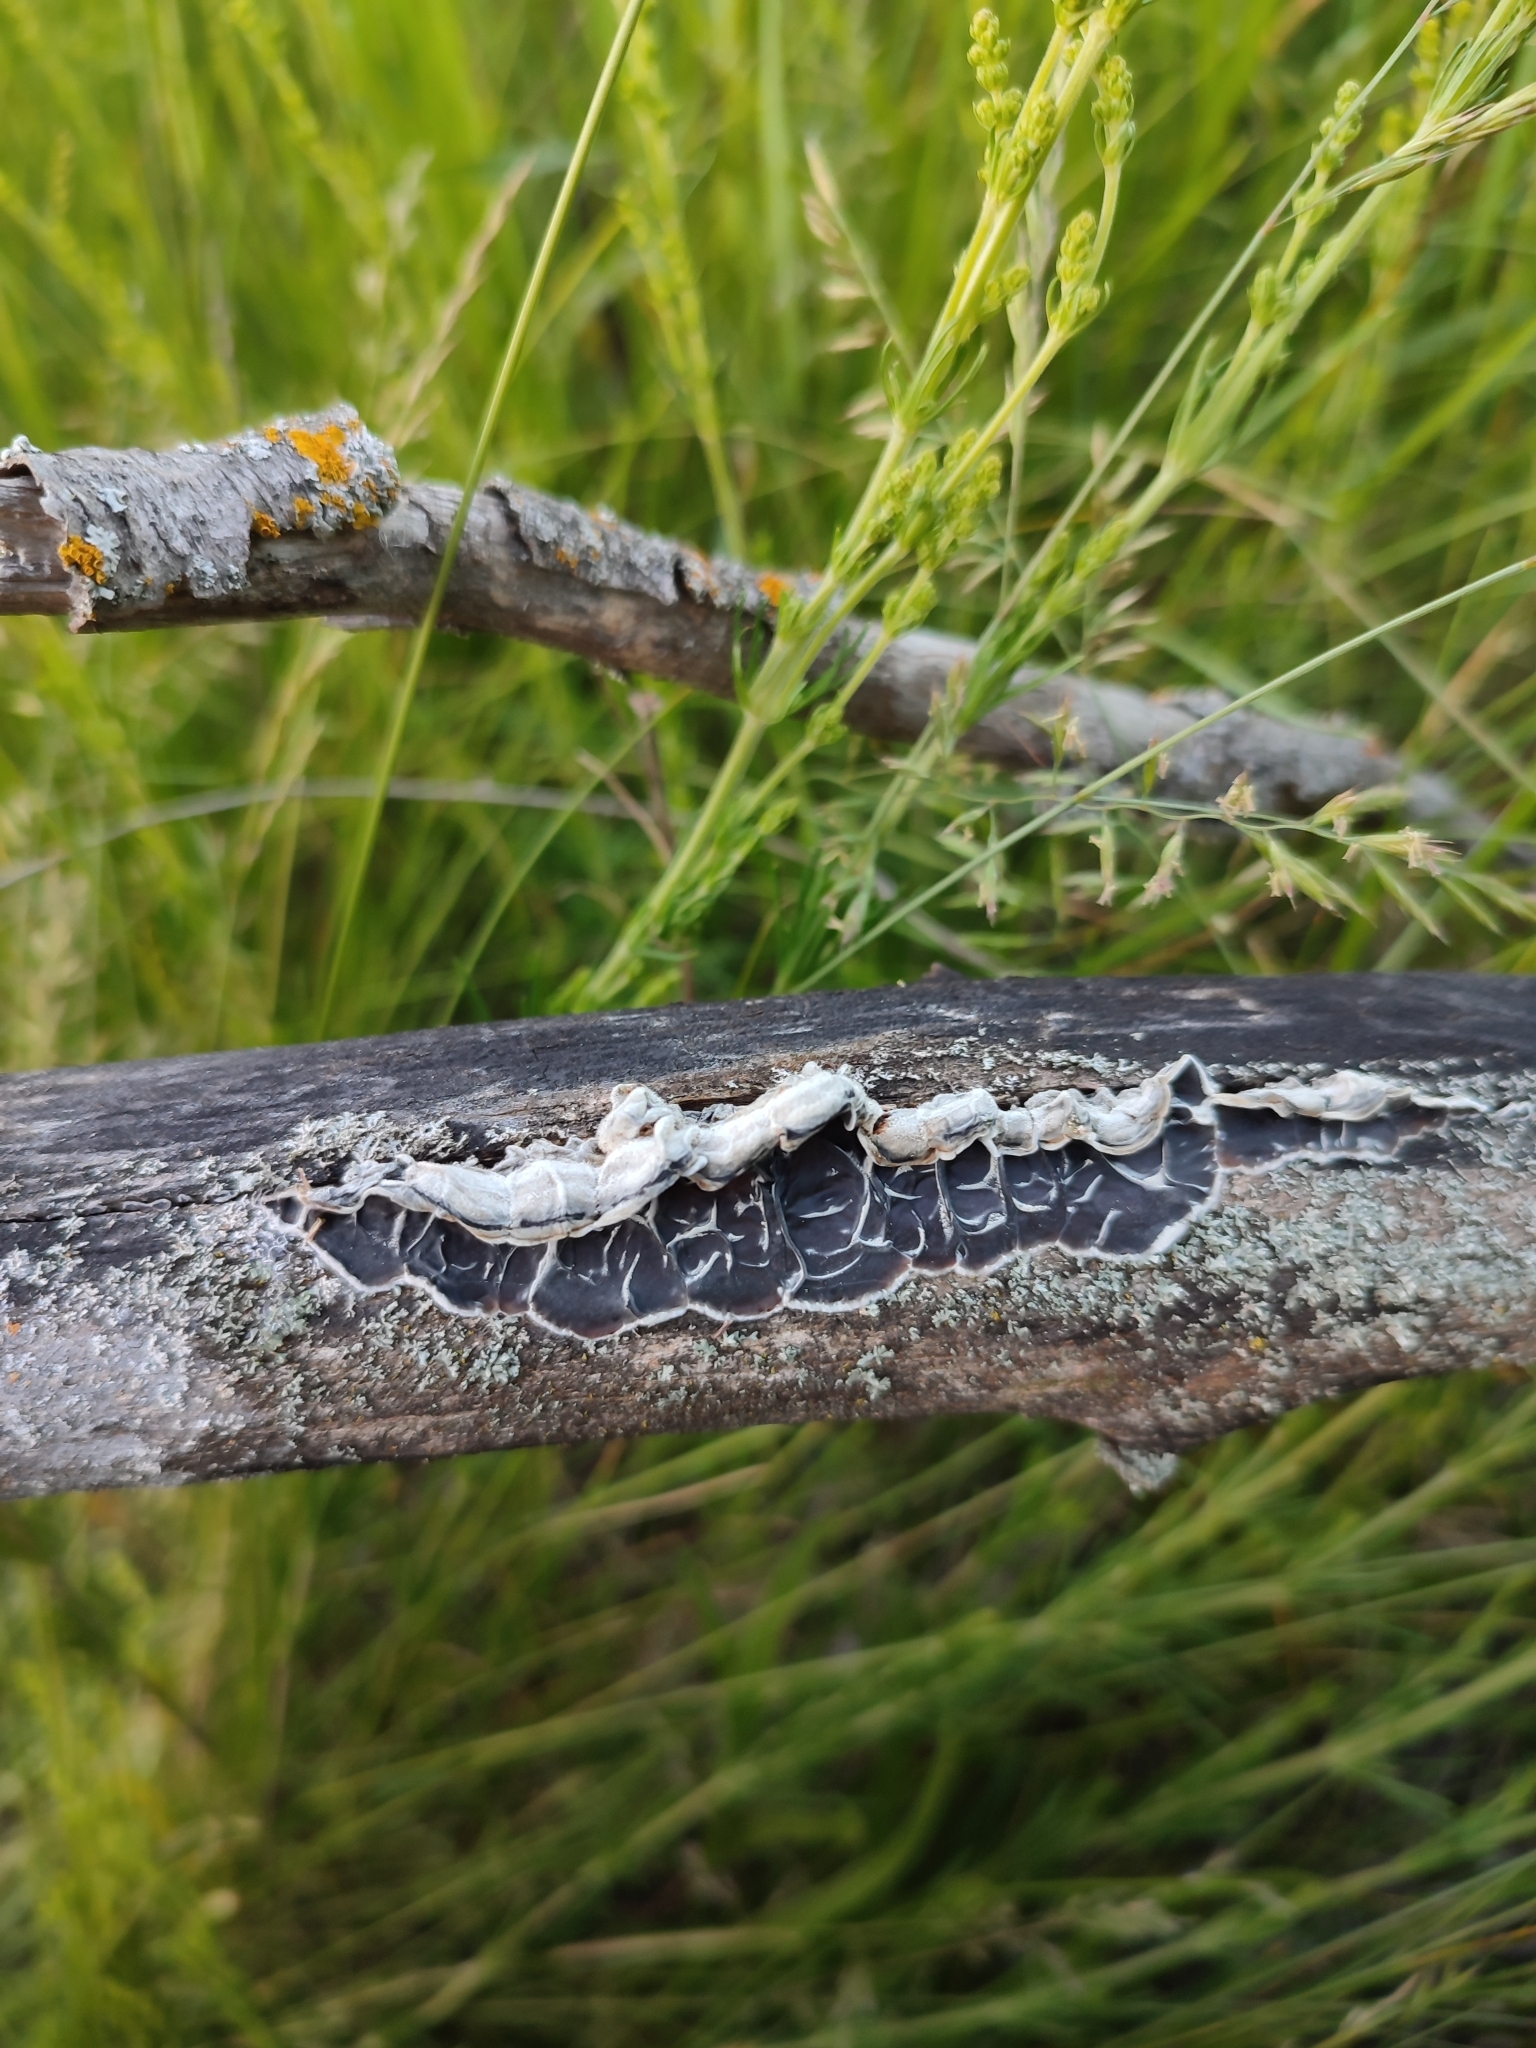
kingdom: Fungi
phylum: Basidiomycota
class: Agaricomycetes
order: Auriculariales
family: Auriculariaceae
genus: Auricularia
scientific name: Auricularia mesenterica
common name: Tripe fungus
